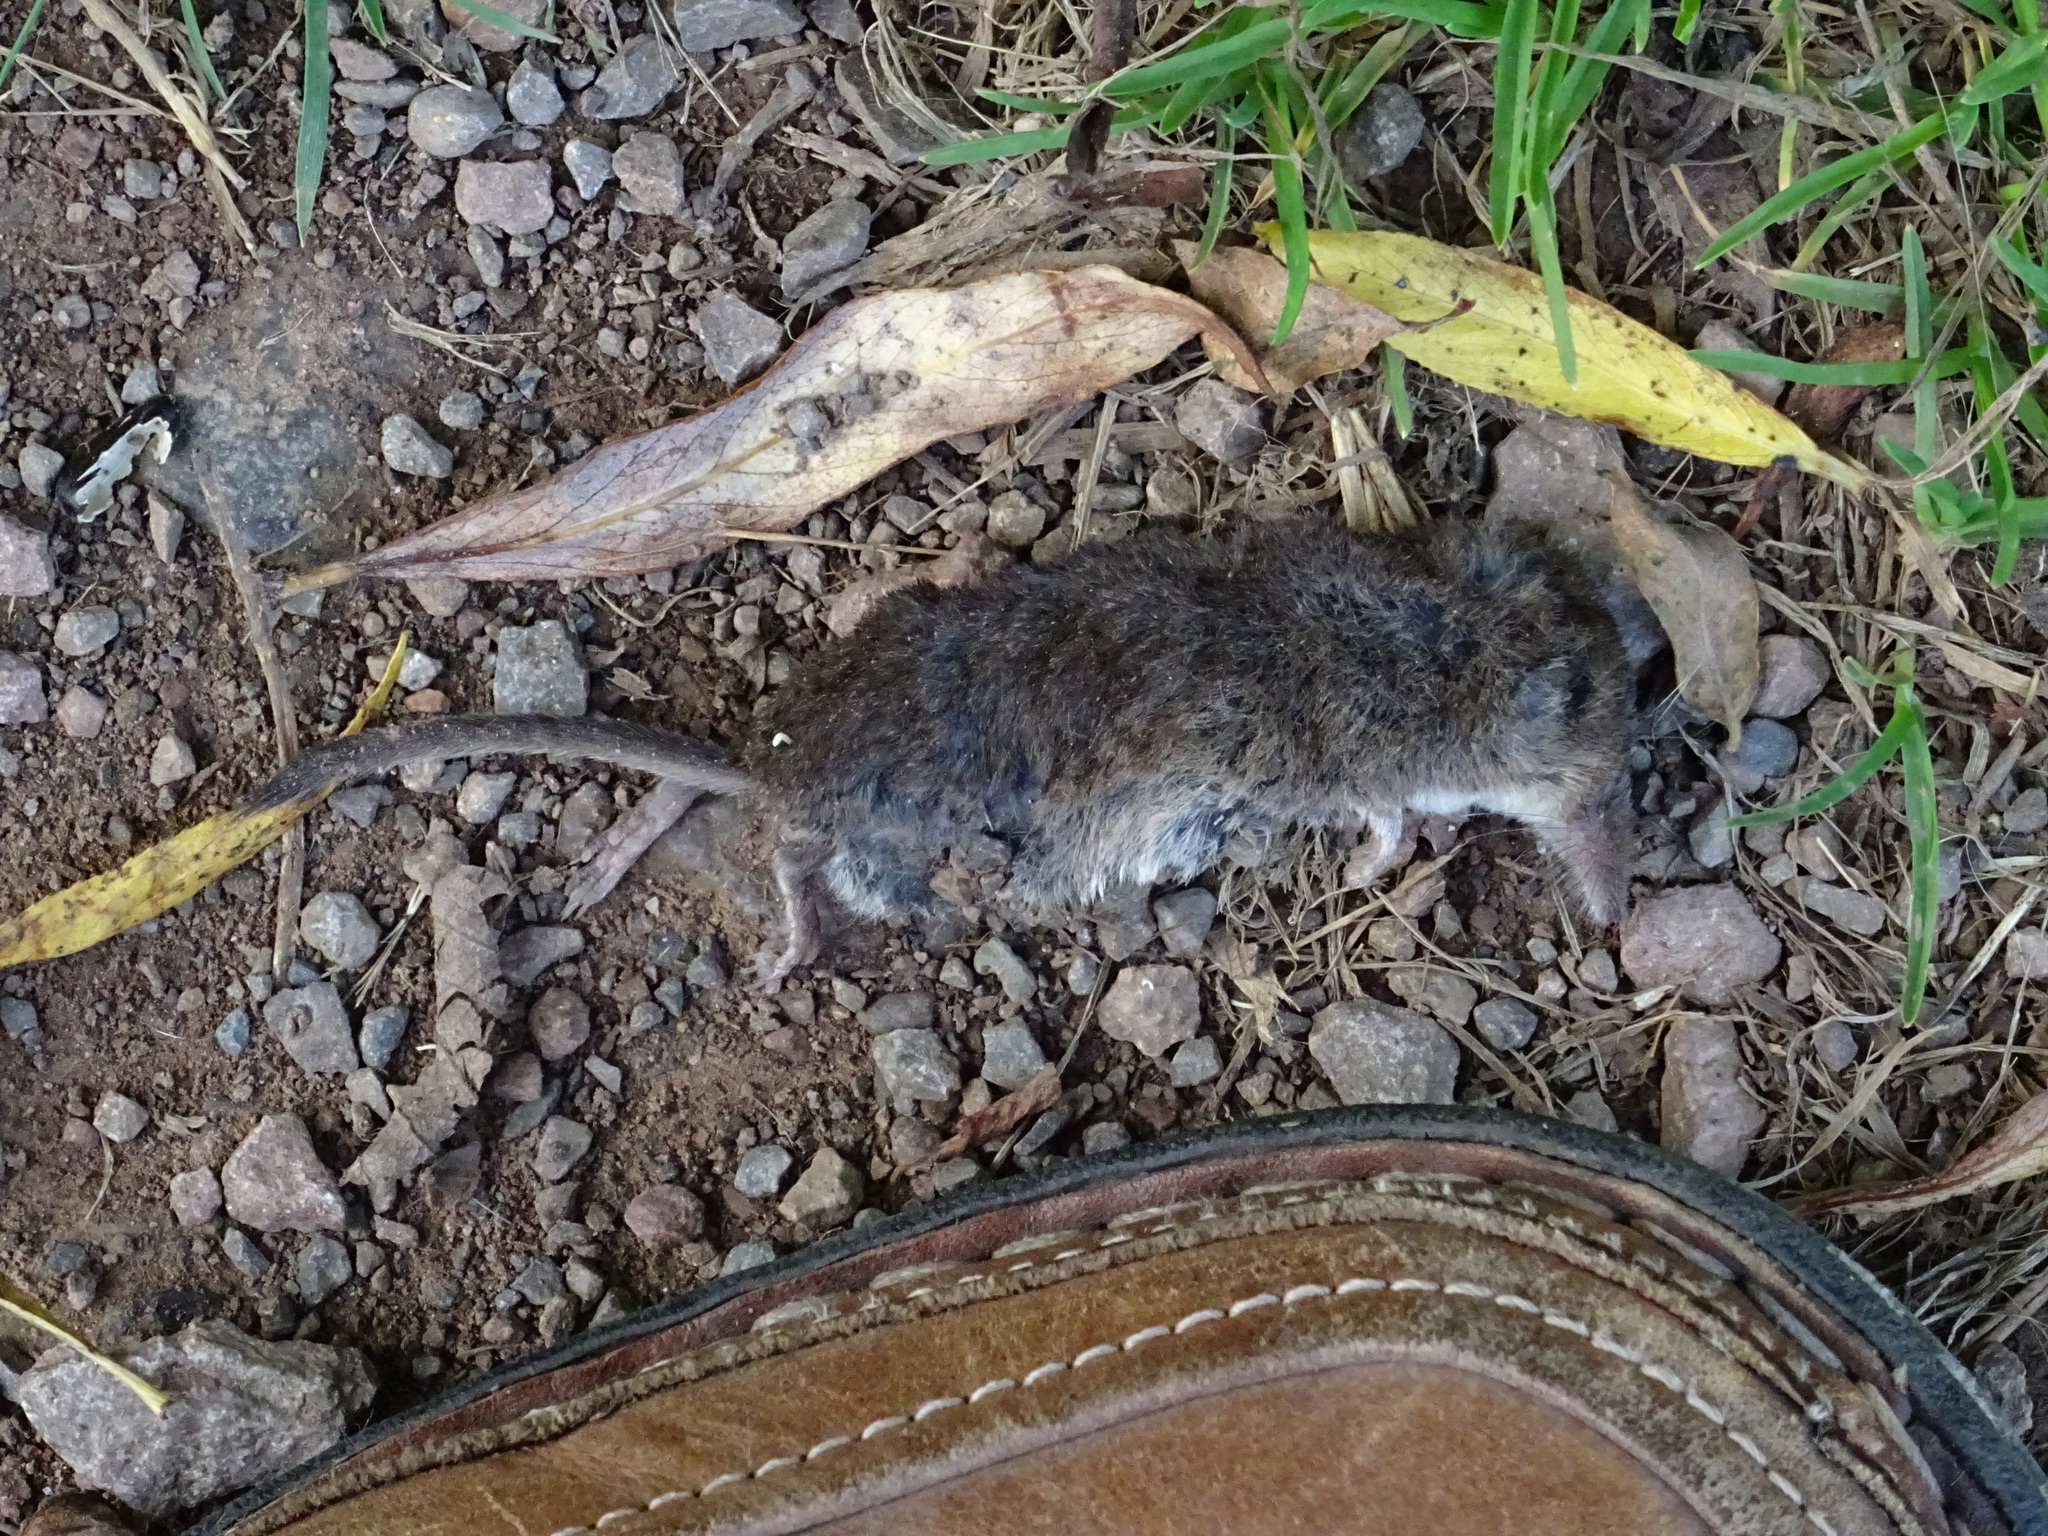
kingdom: Animalia
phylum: Chordata
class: Mammalia
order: Soricomorpha
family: Soricidae
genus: Sorex
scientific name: Sorex araneus
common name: Common shrew
